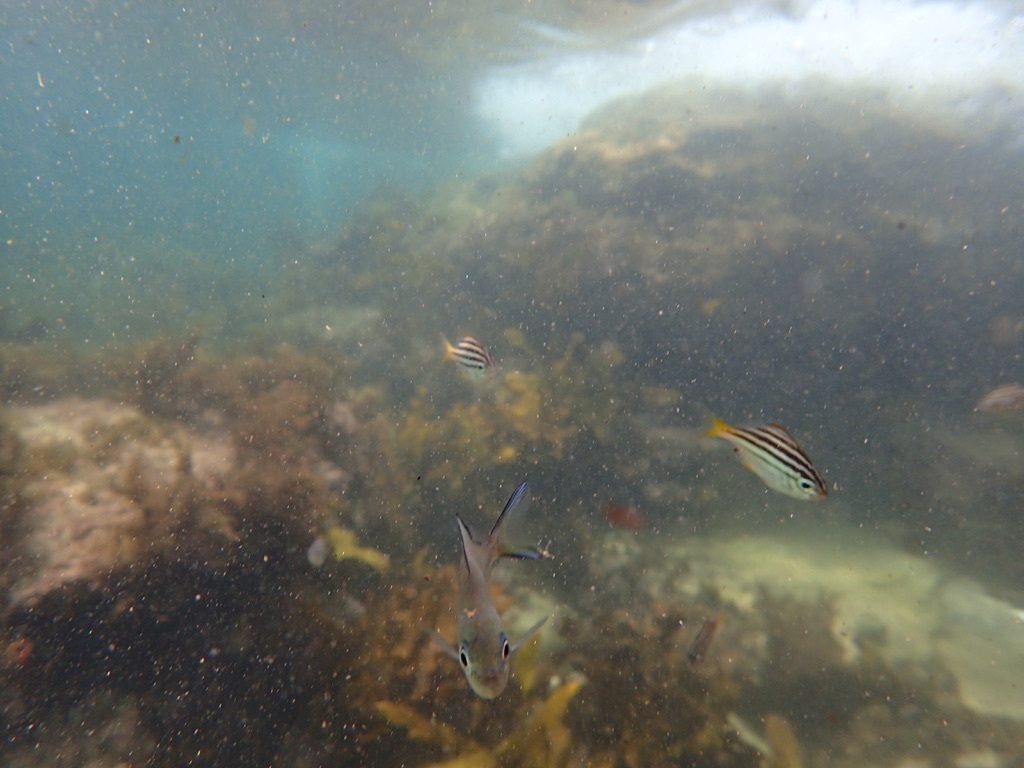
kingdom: Animalia
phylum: Chordata
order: Perciformes
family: Kyphosidae
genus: Scorpis
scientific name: Scorpis lineolata
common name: Sweep
